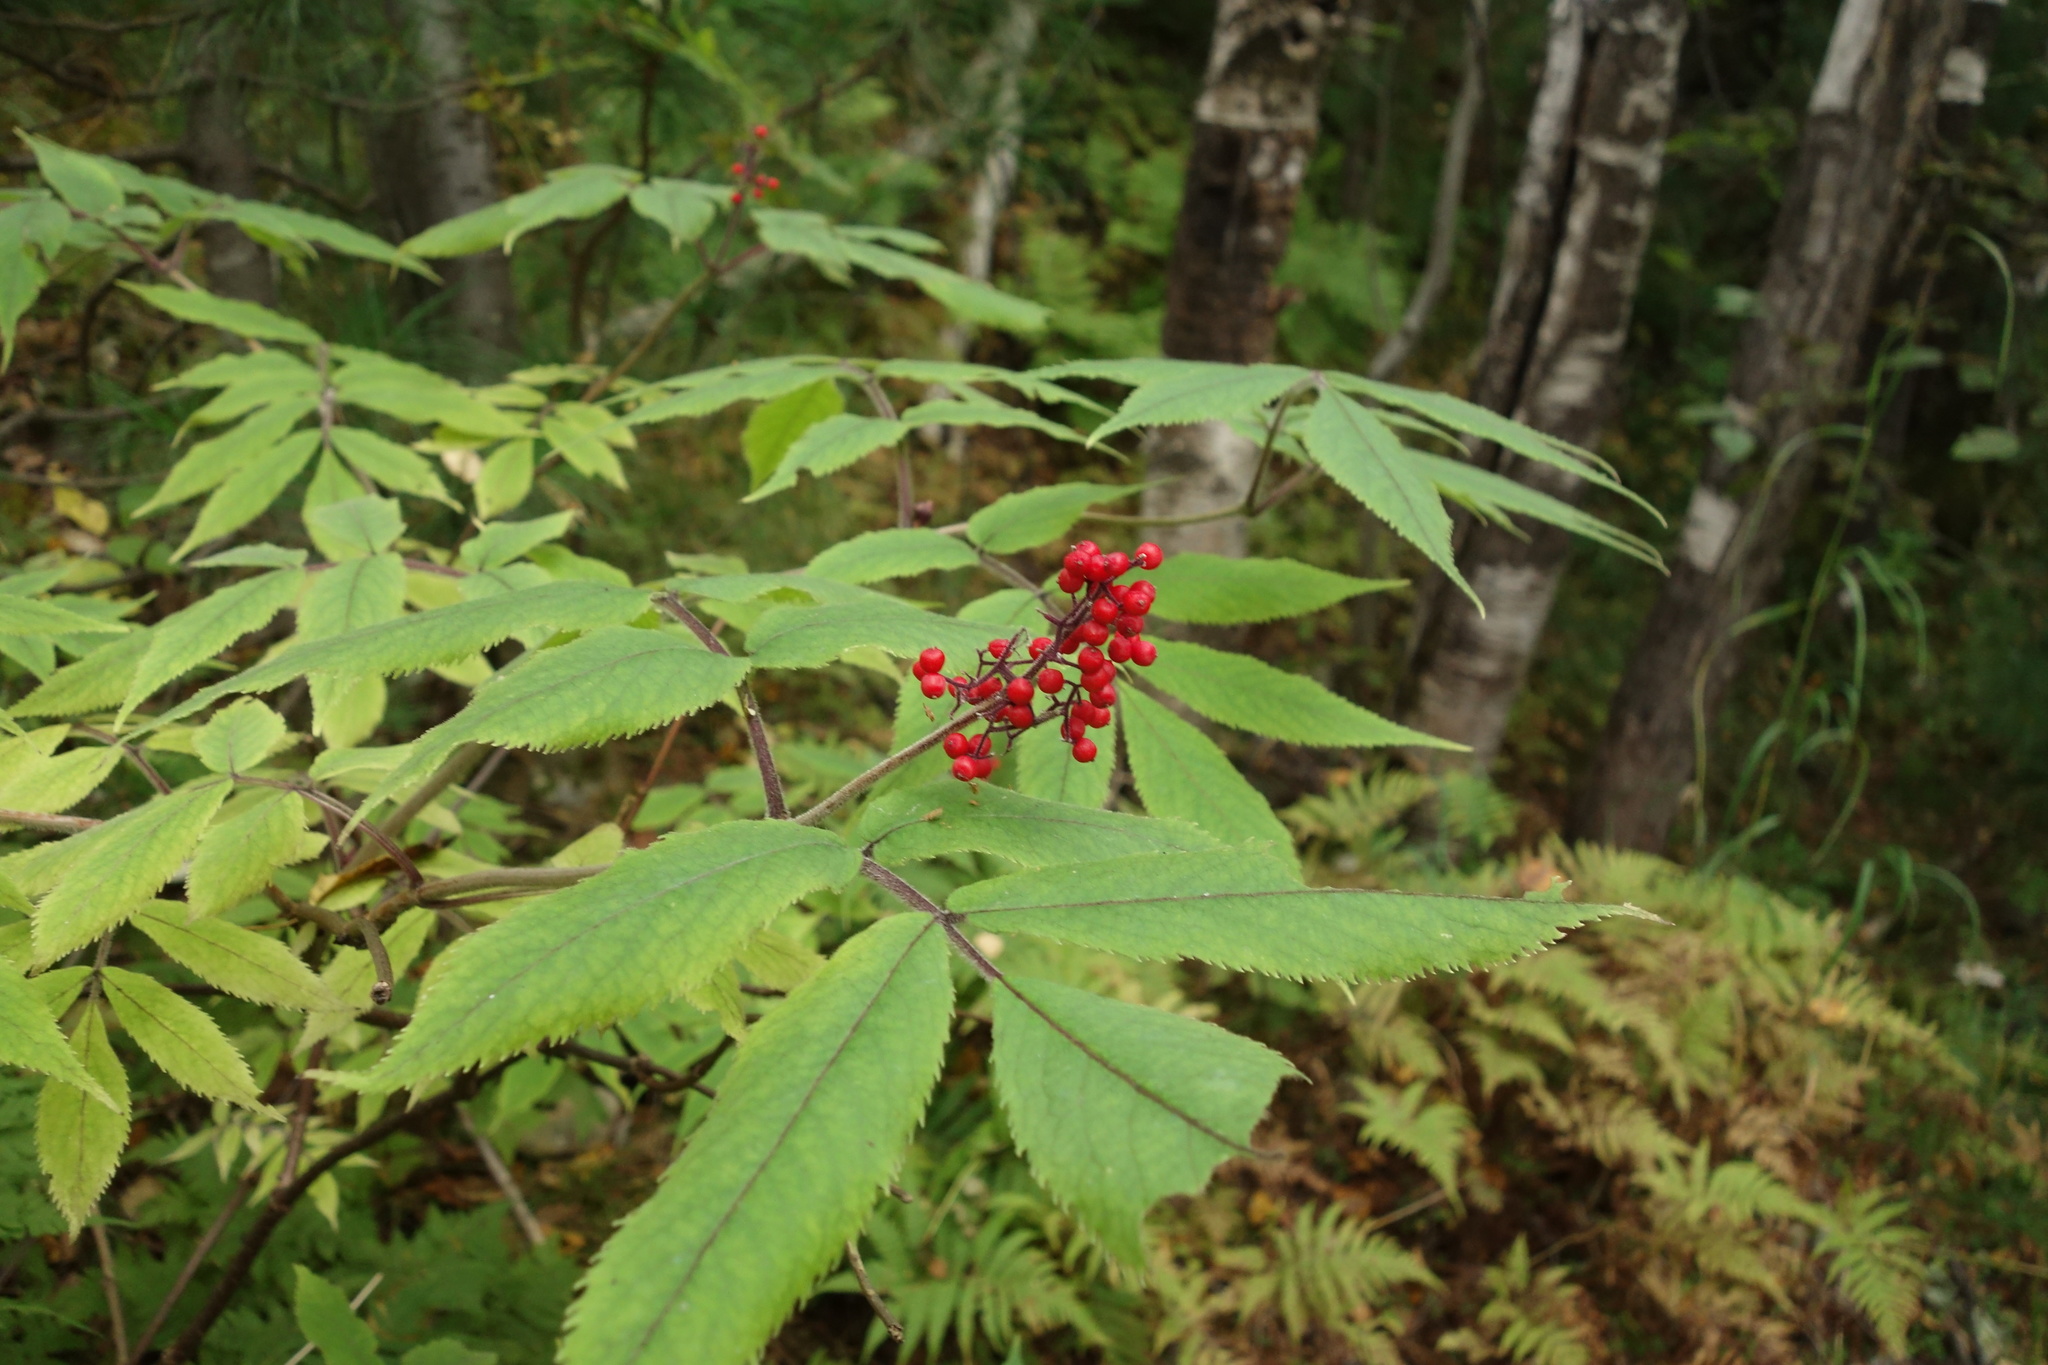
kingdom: Plantae
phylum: Tracheophyta
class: Magnoliopsida
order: Dipsacales
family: Viburnaceae
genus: Sambucus
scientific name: Sambucus sibirica
